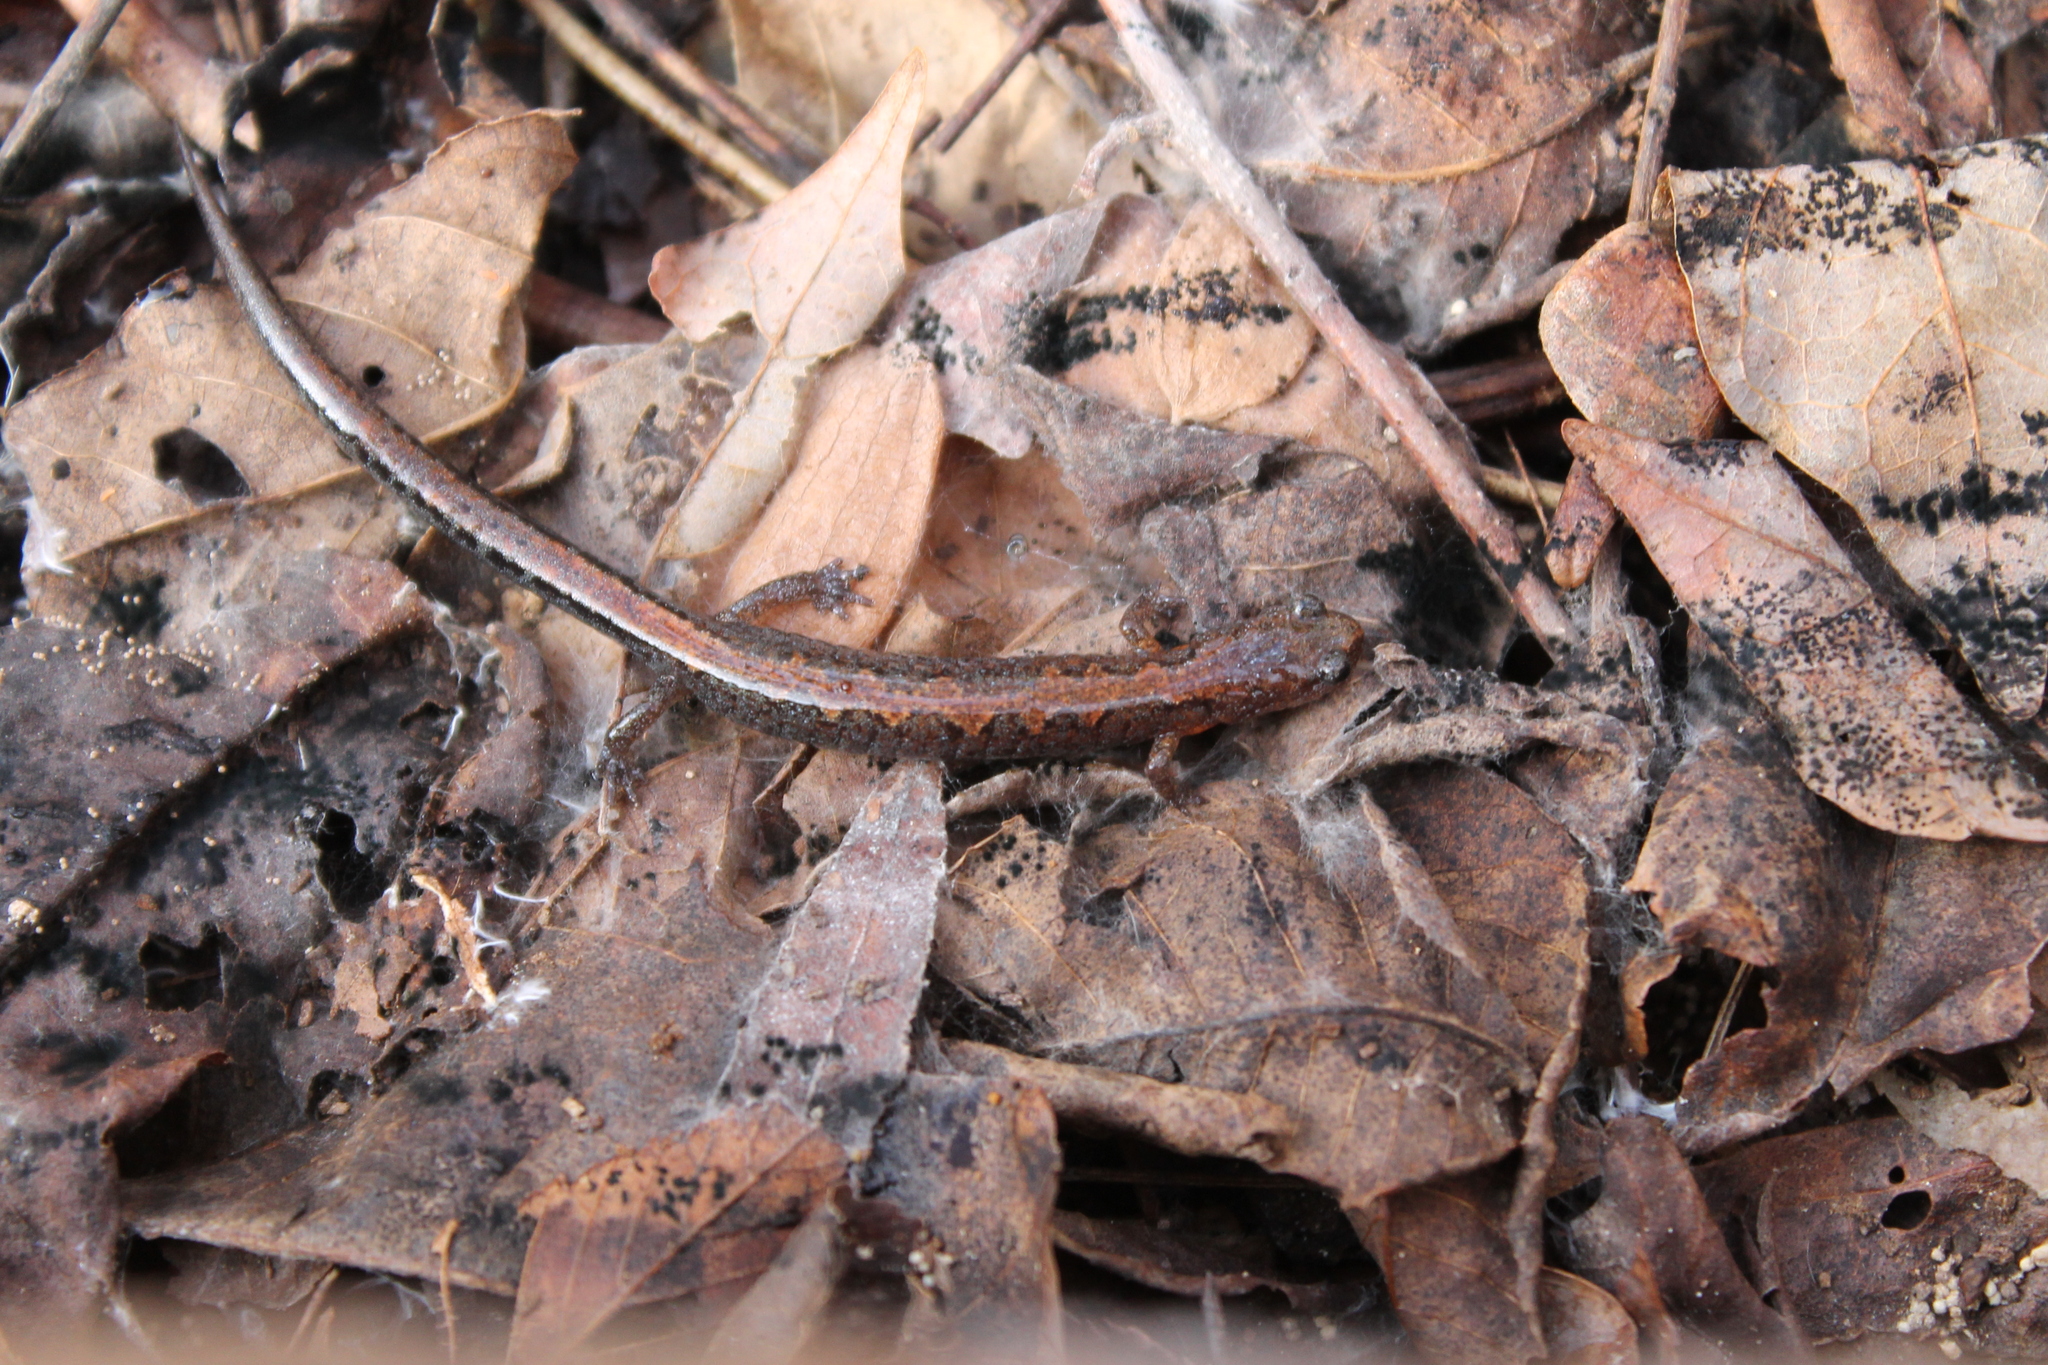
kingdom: Animalia
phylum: Chordata
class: Amphibia
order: Caudata
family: Plethodontidae
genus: Plethodon
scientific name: Plethodon dorsalis
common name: Northern zigzag salamander
